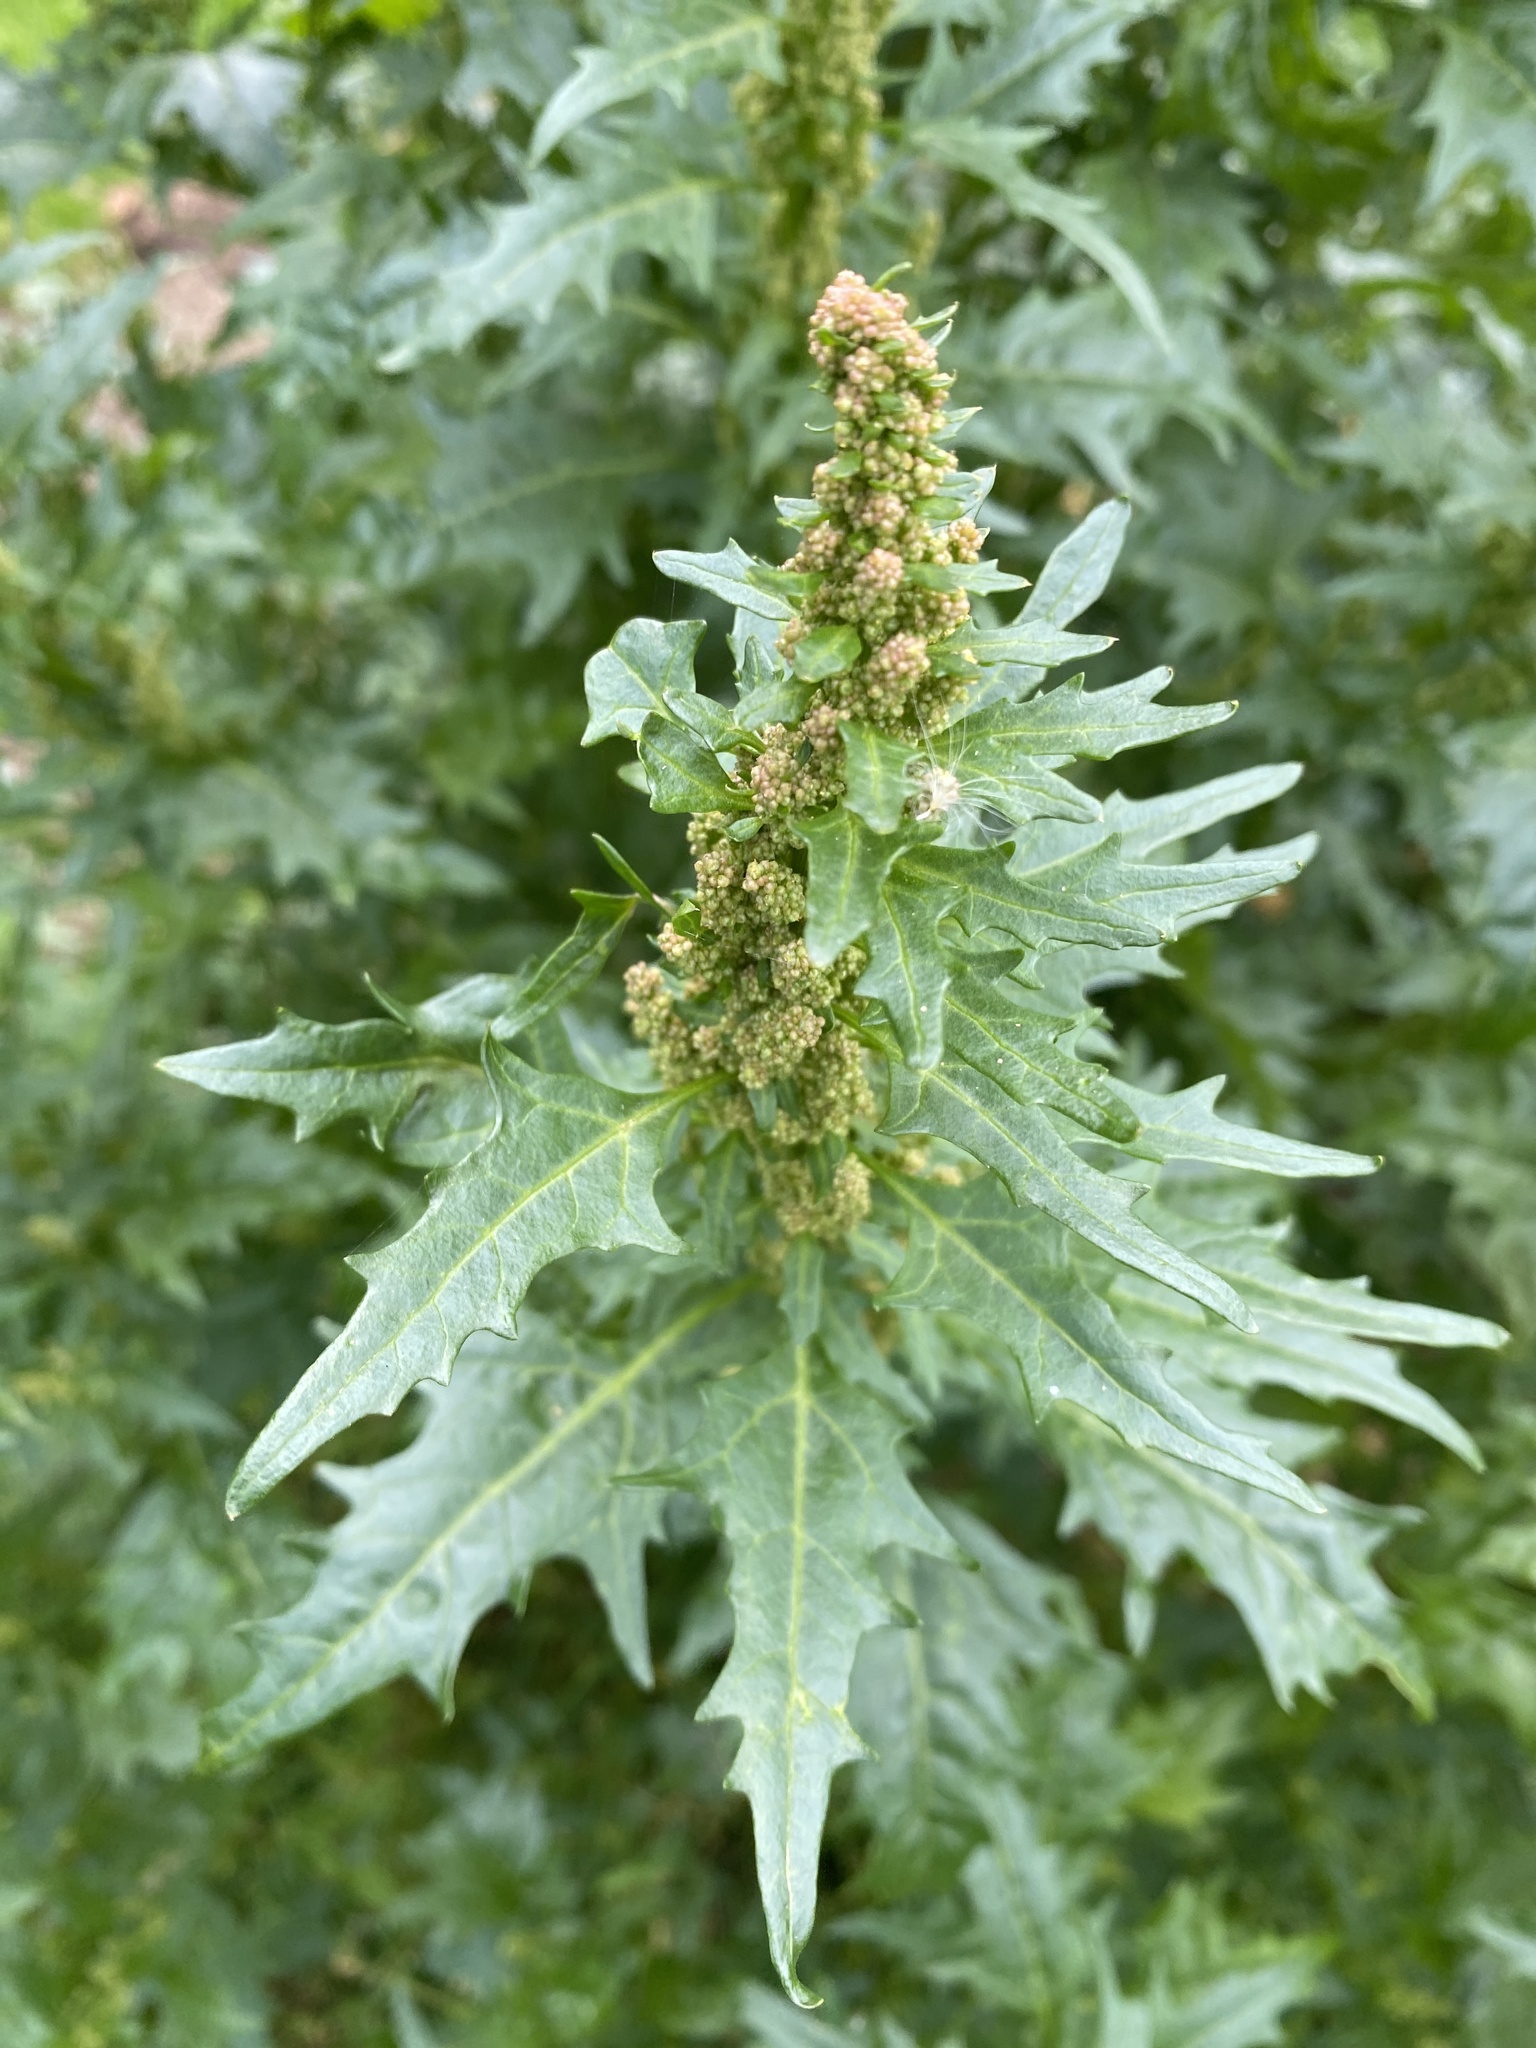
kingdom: Plantae
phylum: Tracheophyta
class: Magnoliopsida
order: Caryophyllales
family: Amaranthaceae
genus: Oxybasis
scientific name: Oxybasis rubra
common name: Red goosefoot
